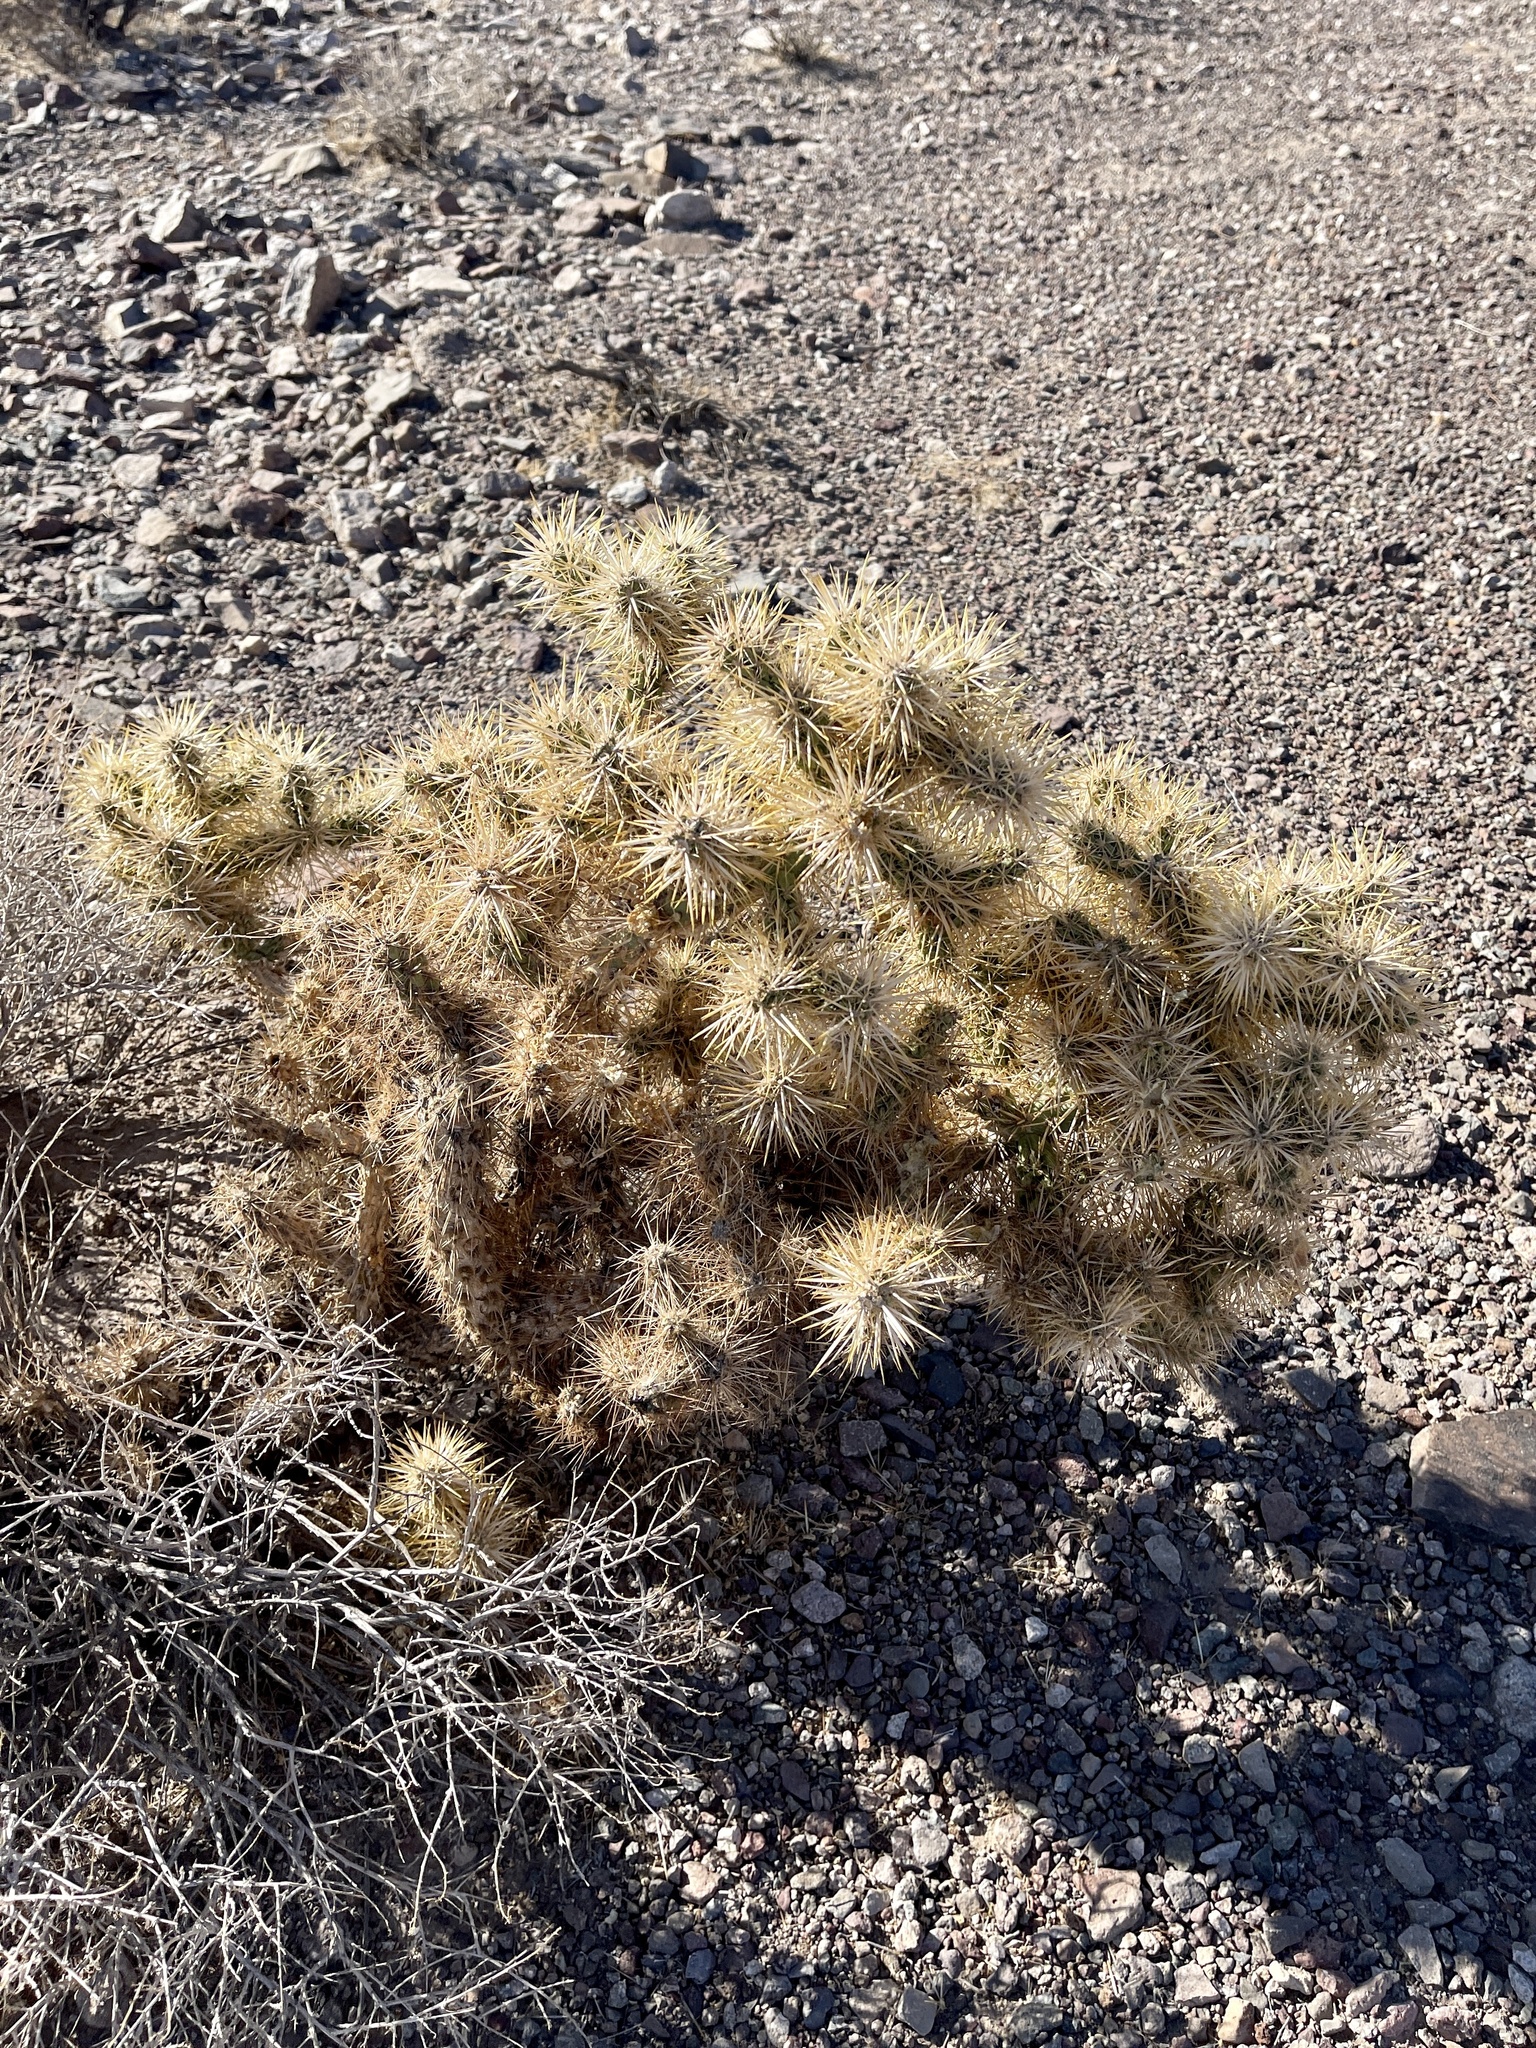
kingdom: Plantae
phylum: Tracheophyta
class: Magnoliopsida
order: Caryophyllales
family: Cactaceae
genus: Cylindropuntia
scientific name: Cylindropuntia echinocarpa
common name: Ground cholla
